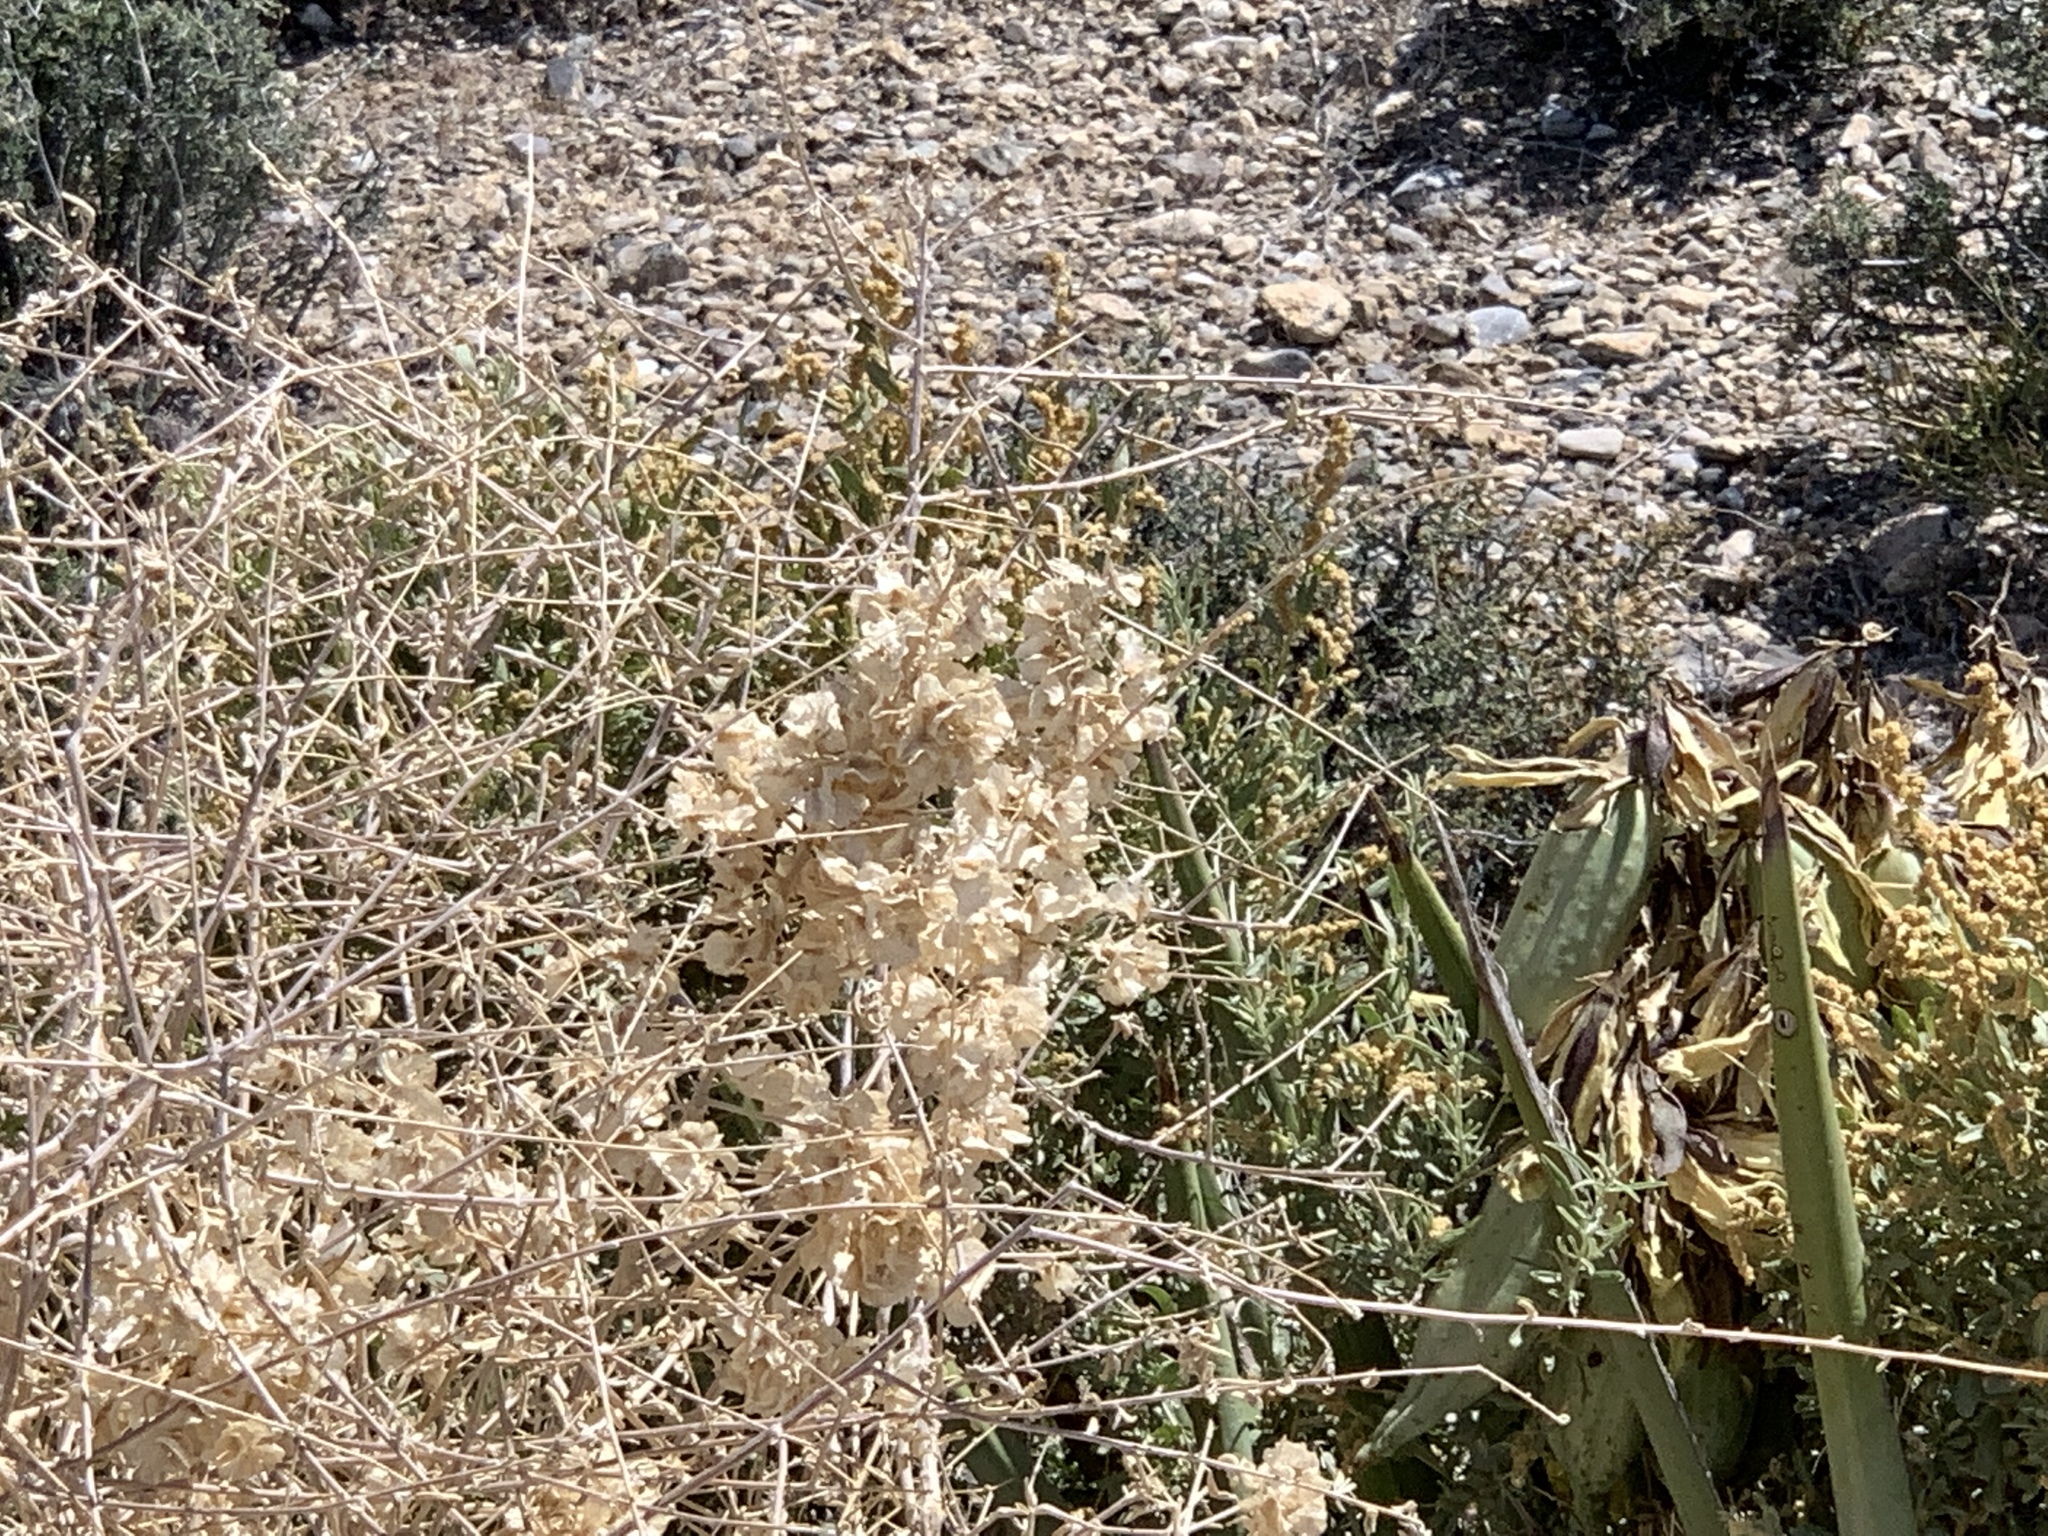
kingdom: Plantae
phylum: Tracheophyta
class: Magnoliopsida
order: Lamiales
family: Lamiaceae
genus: Scutellaria
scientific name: Scutellaria mexicana
